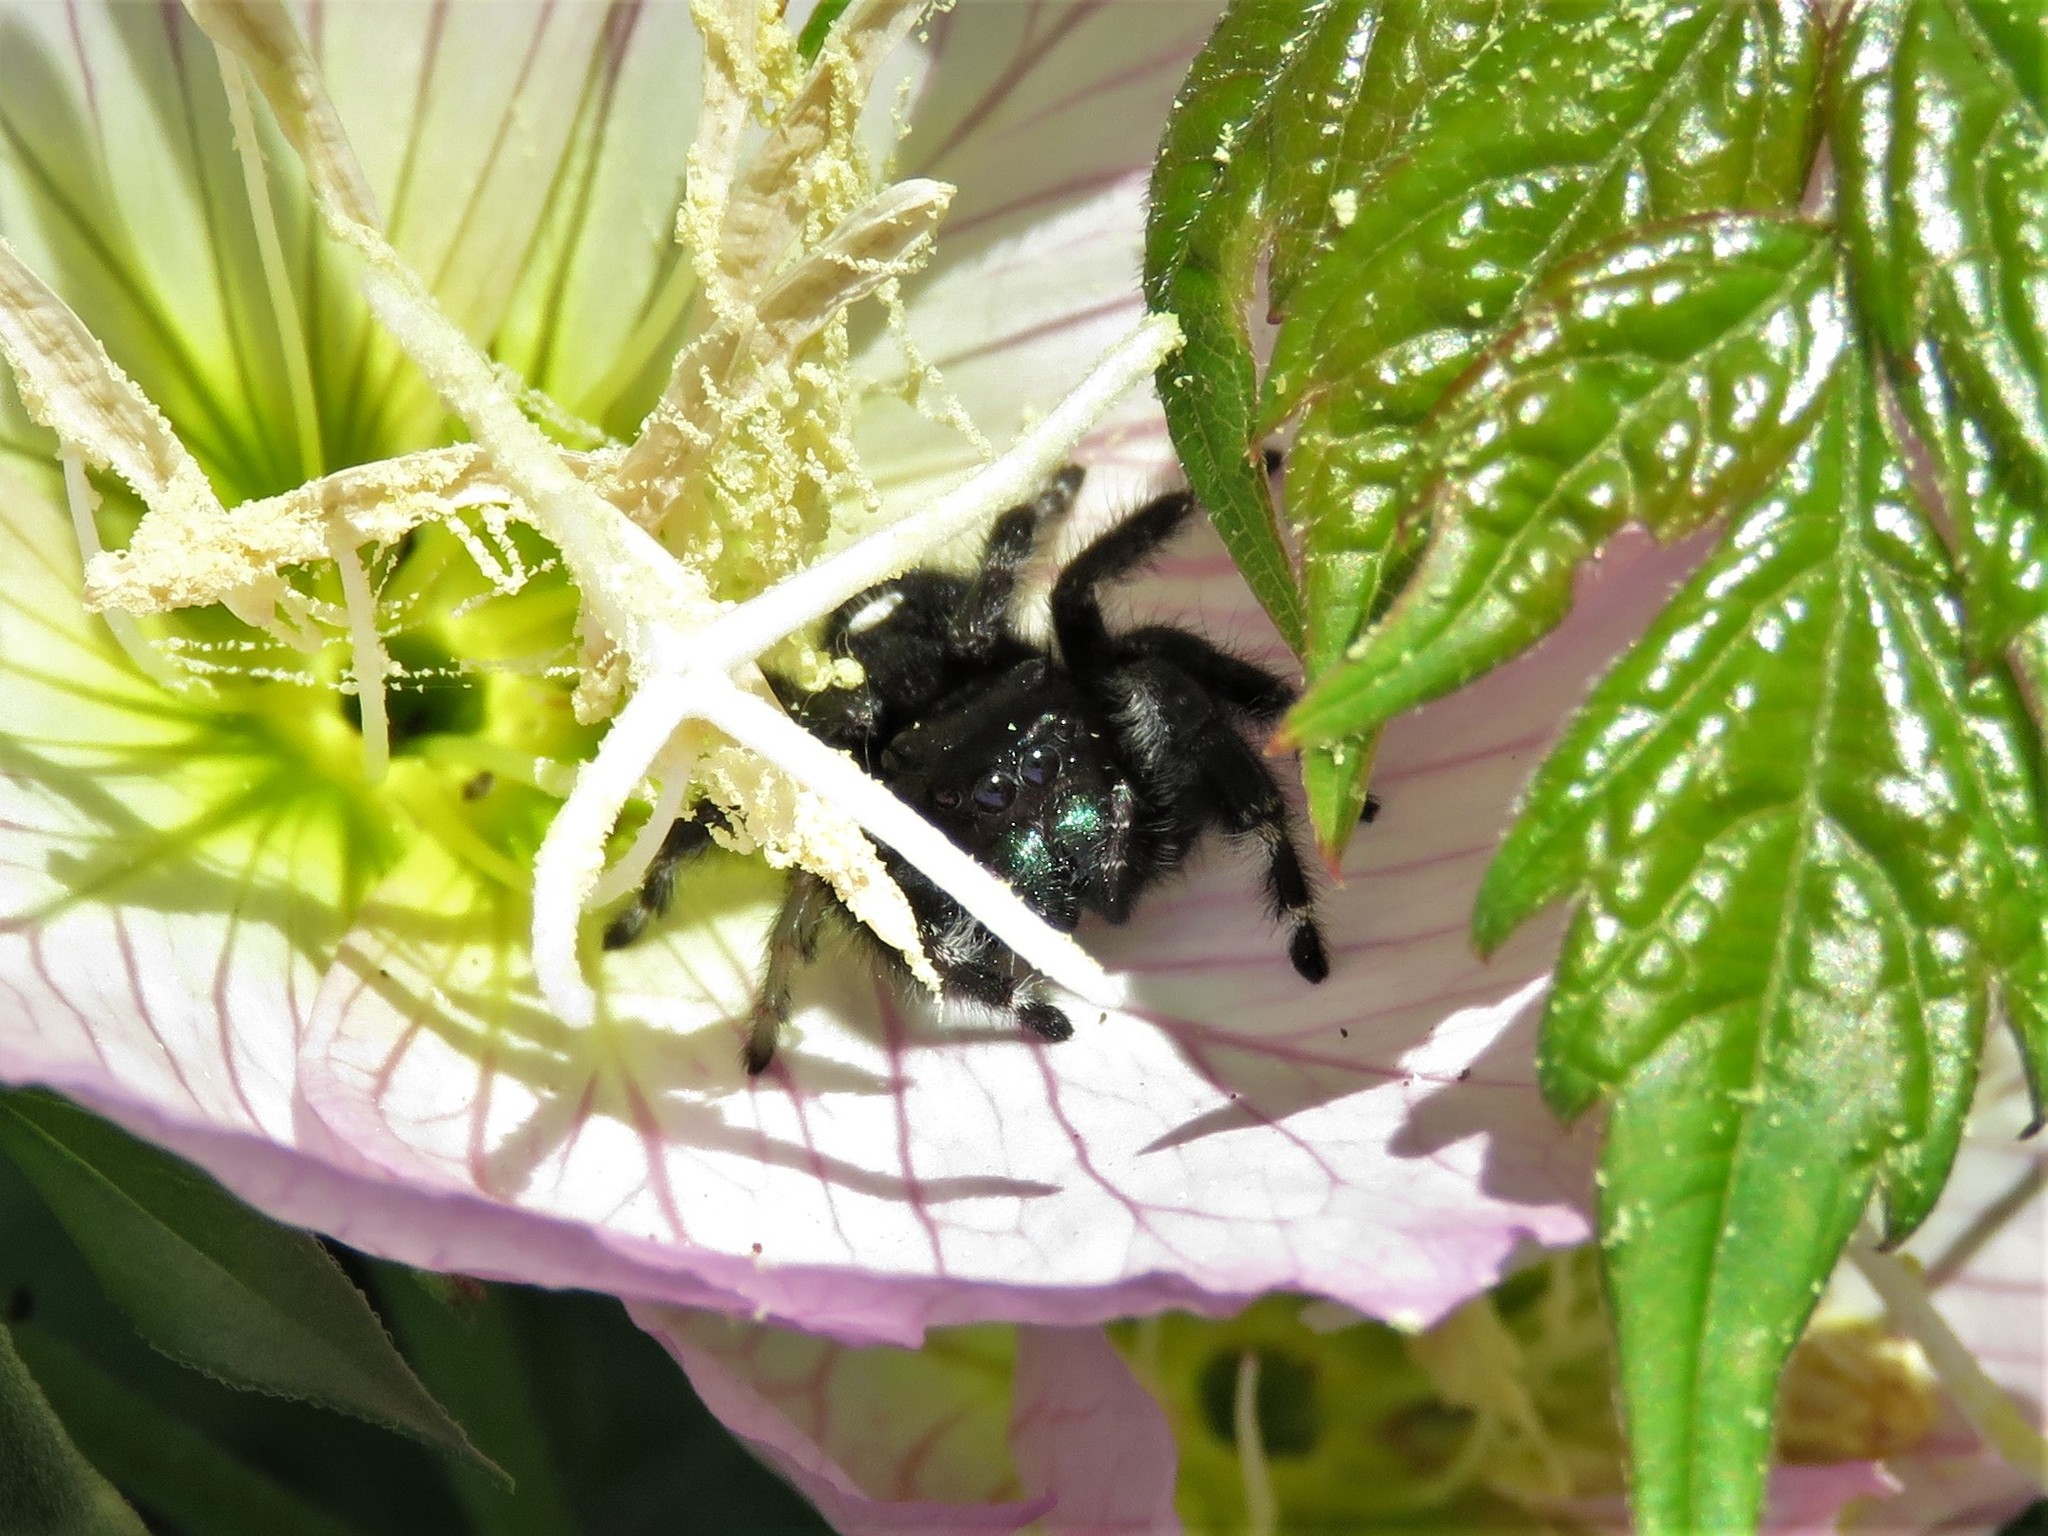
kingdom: Animalia
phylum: Arthropoda
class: Arachnida
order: Araneae
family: Salticidae
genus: Phidippus
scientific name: Phidippus audax
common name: Bold jumper
